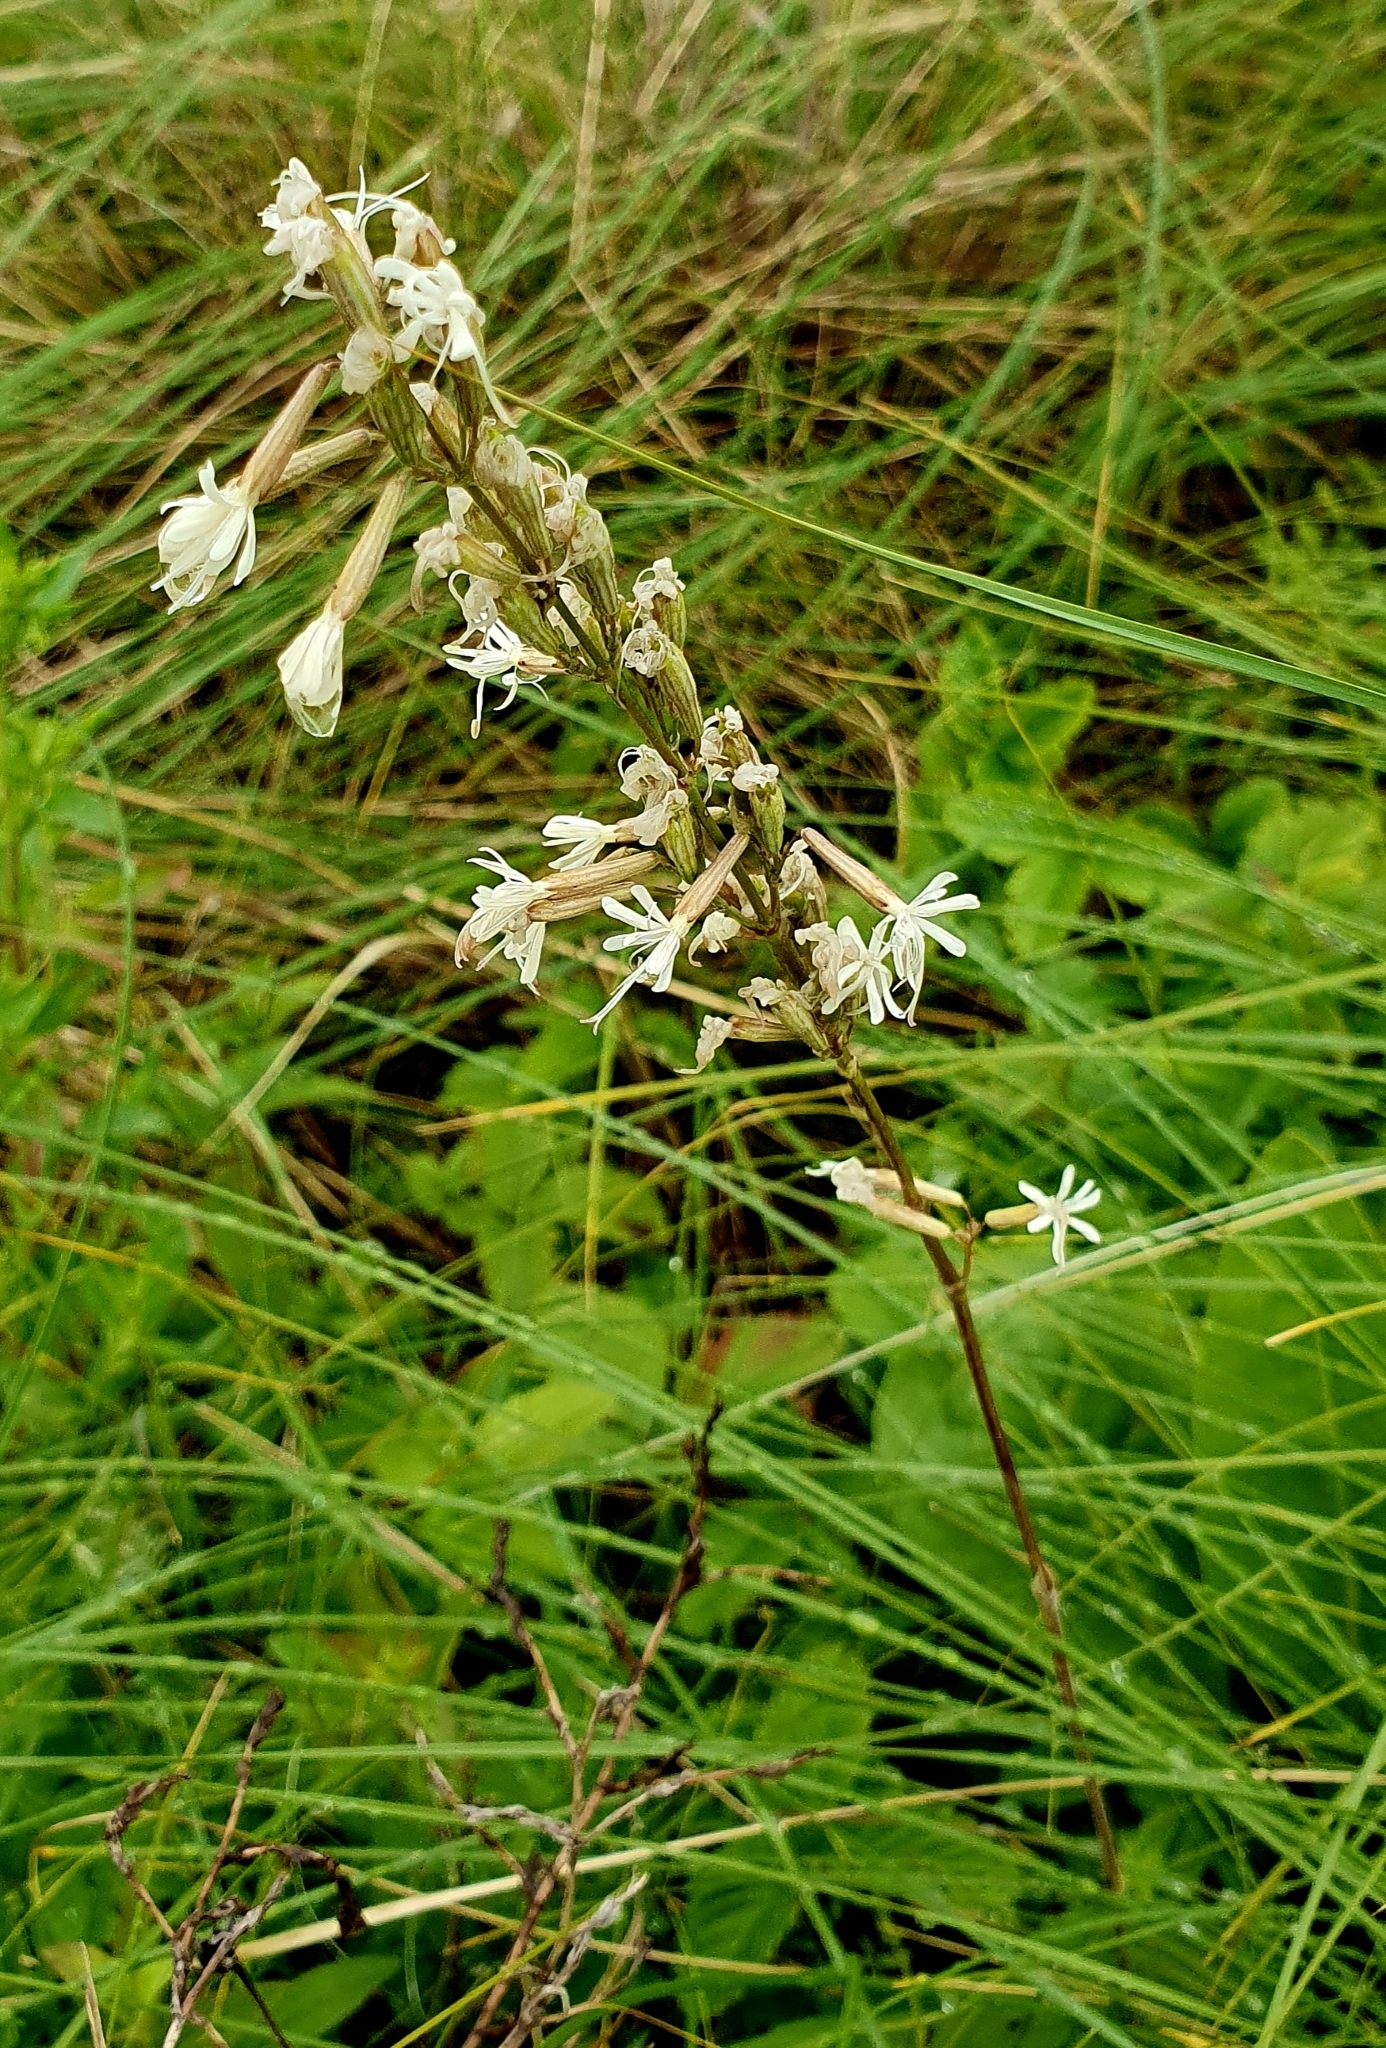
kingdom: Plantae
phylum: Tracheophyta
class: Magnoliopsida
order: Caryophyllales
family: Caryophyllaceae
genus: Silene
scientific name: Silene multiflora
